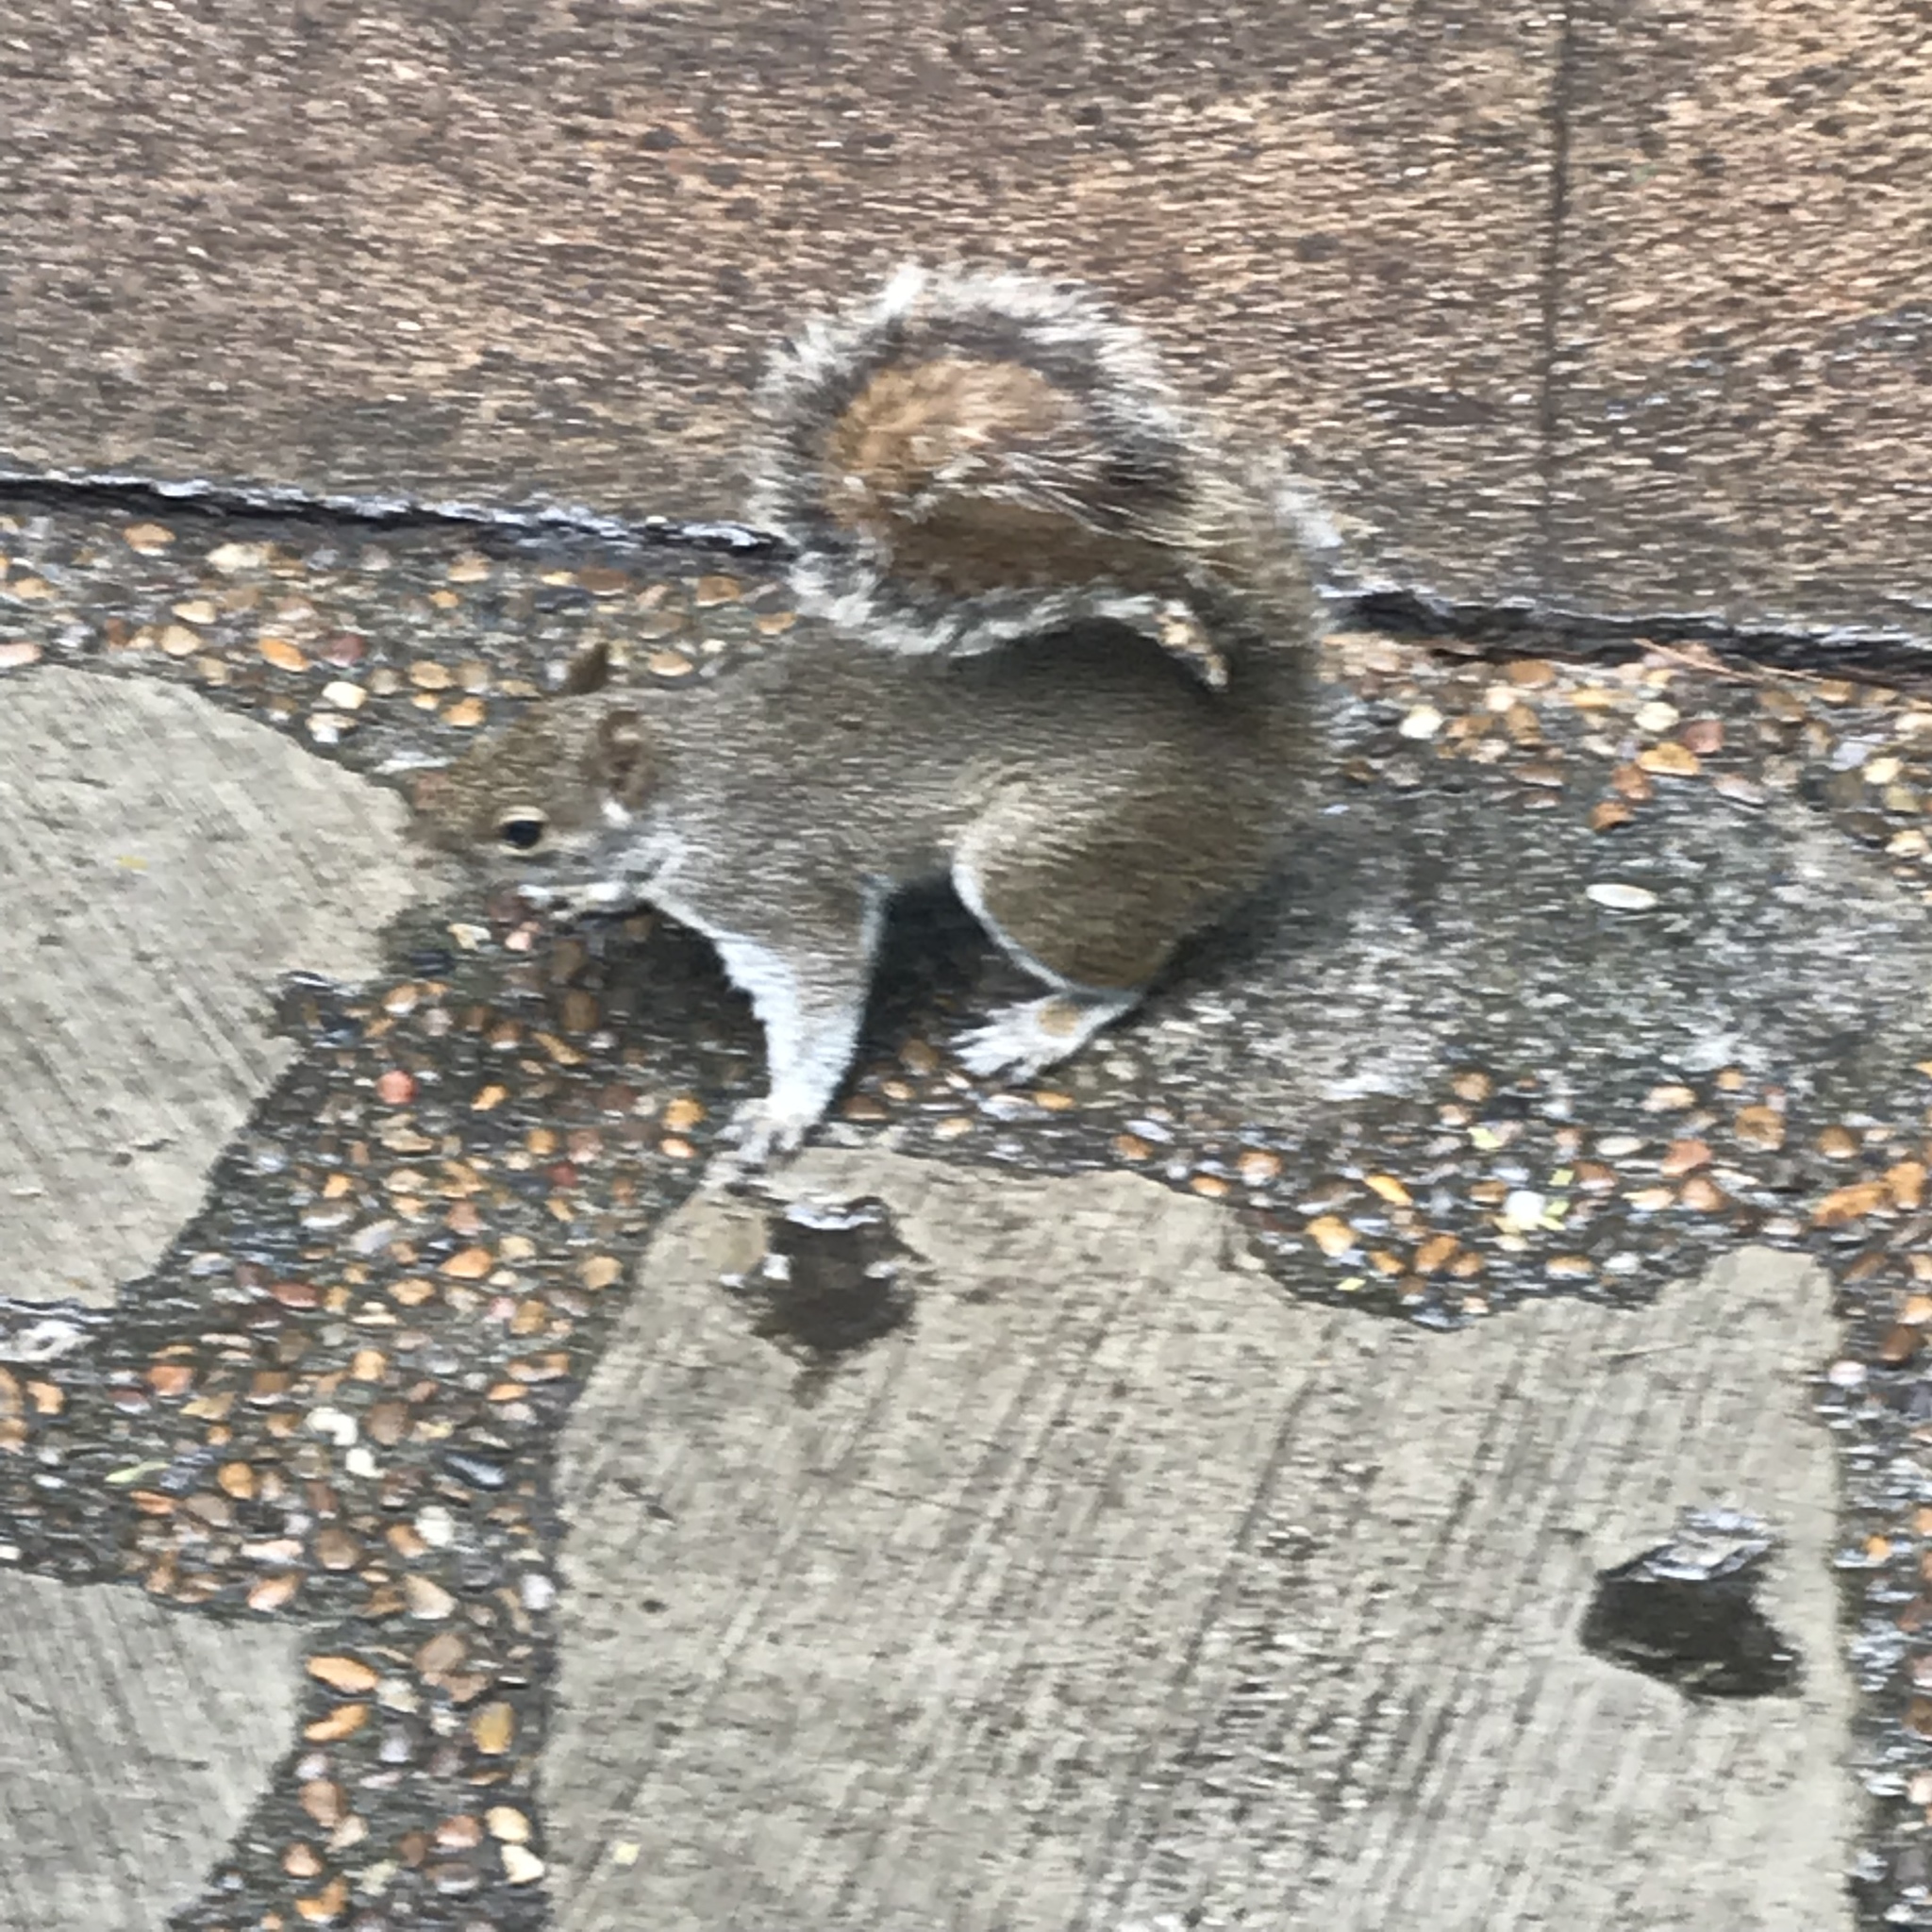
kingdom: Animalia
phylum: Chordata
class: Mammalia
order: Rodentia
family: Sciuridae
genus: Sciurus
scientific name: Sciurus alleni
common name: Allen's squirrel
